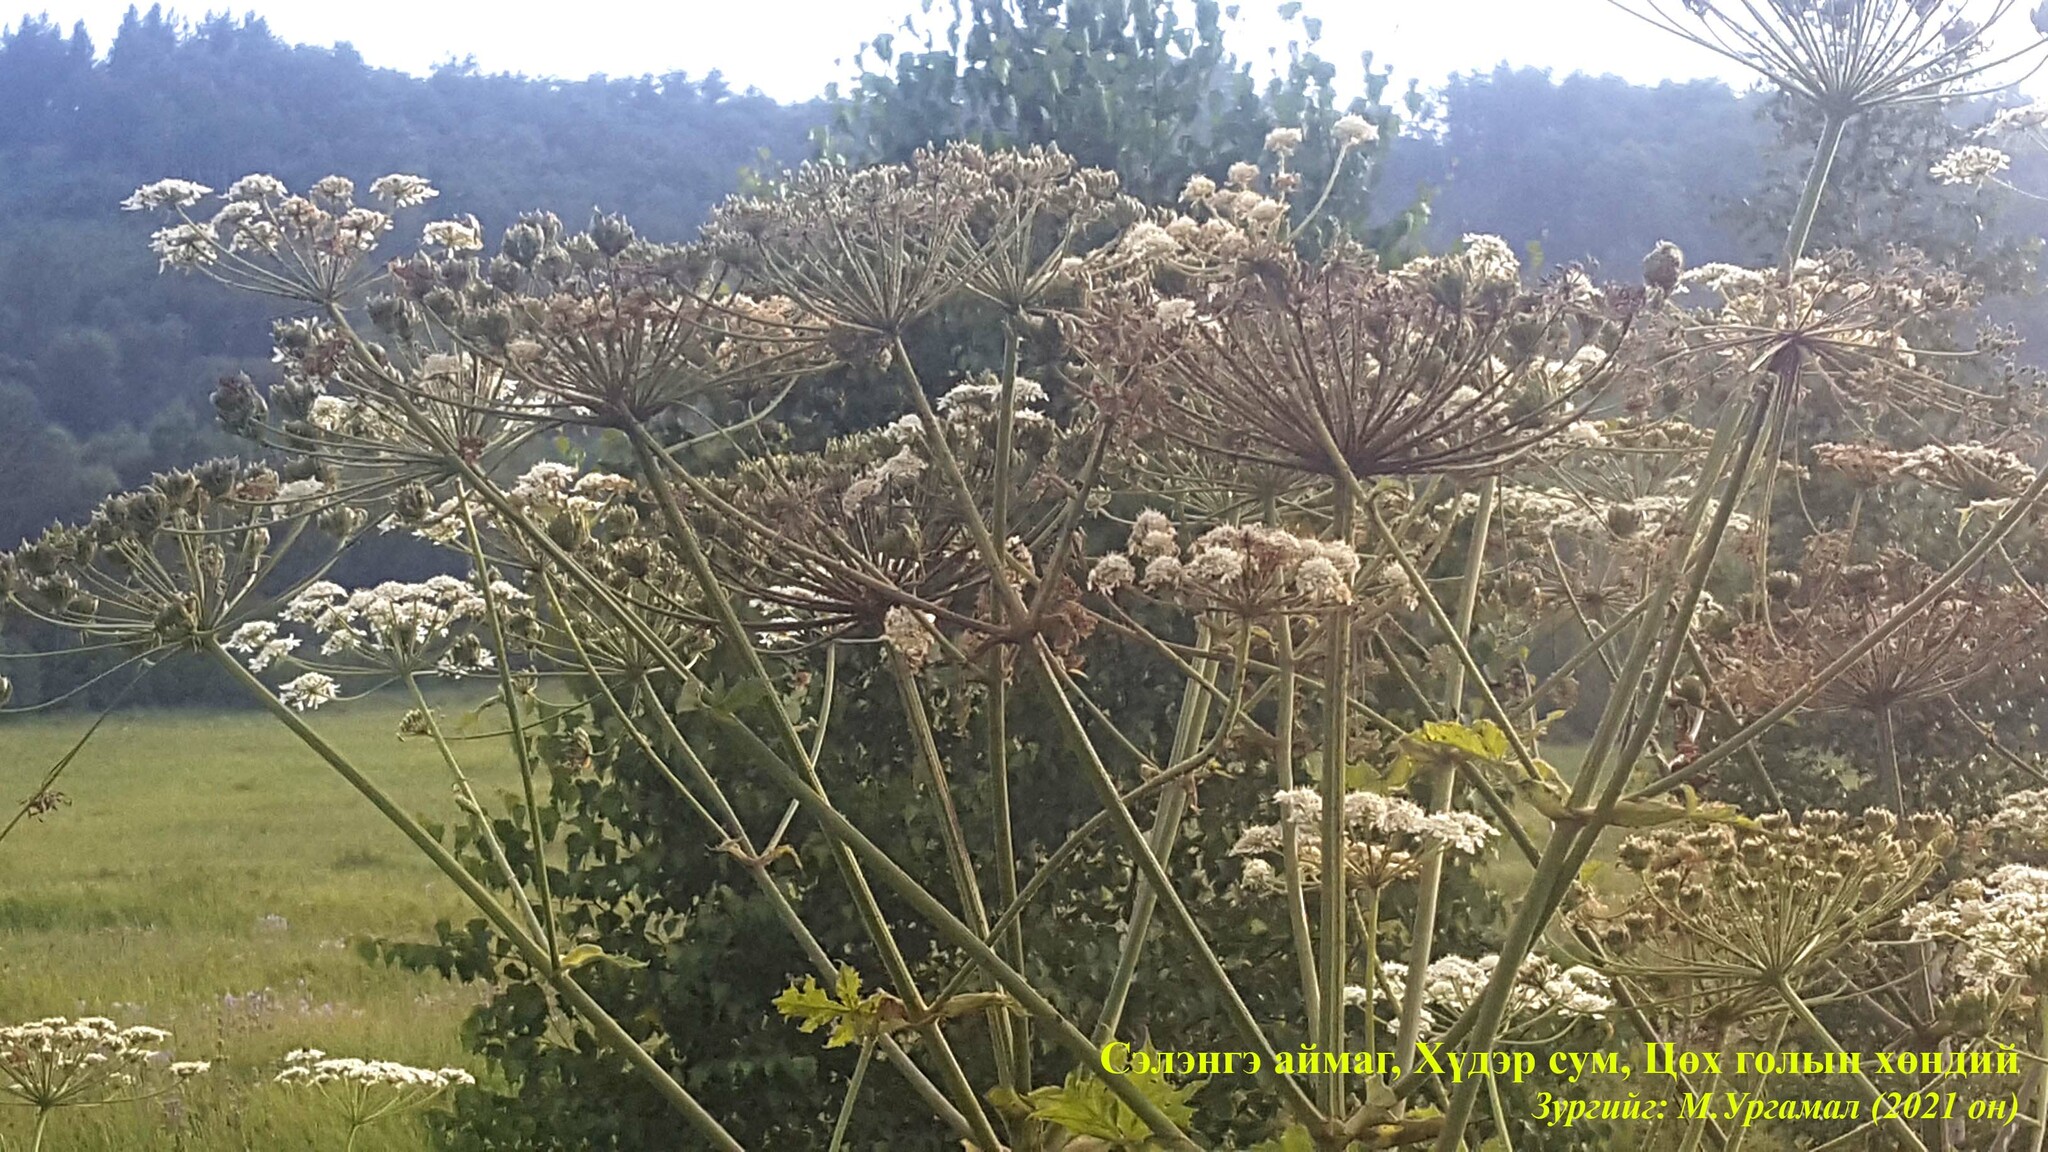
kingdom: Plantae
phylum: Tracheophyta
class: Magnoliopsida
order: Apiales
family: Apiaceae
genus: Heracleum
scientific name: Heracleum dissectum
